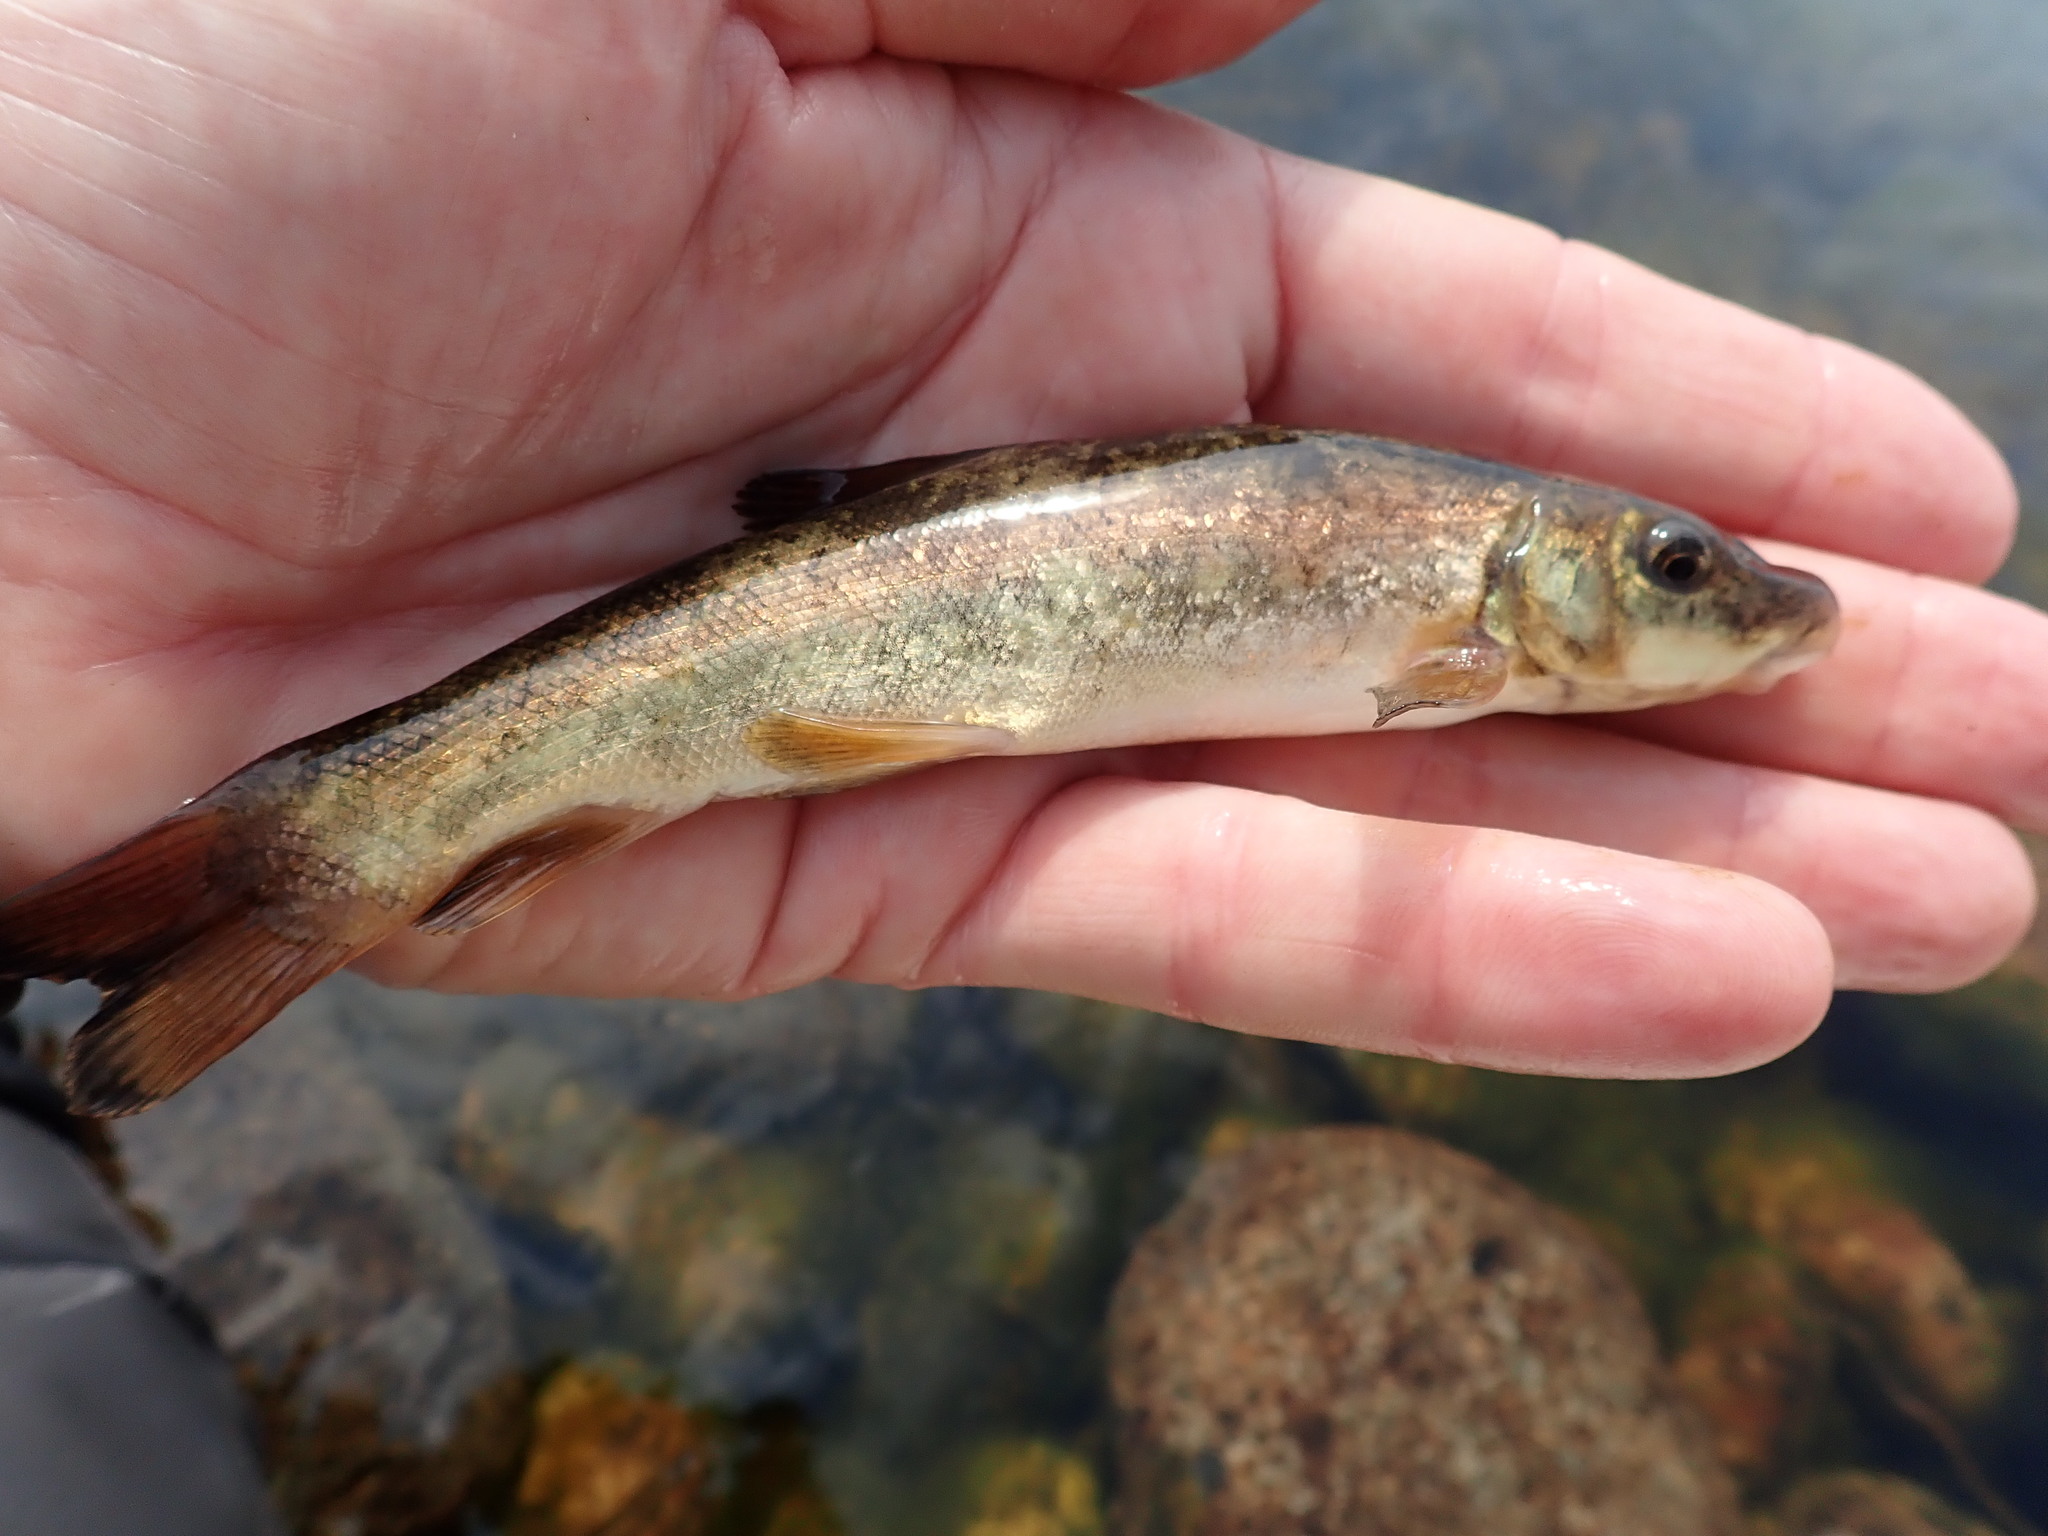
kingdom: Animalia
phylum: Chordata
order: Cypriniformes
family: Catostomidae
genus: Catostomus
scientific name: Catostomus catostomus
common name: Longnose sucker
